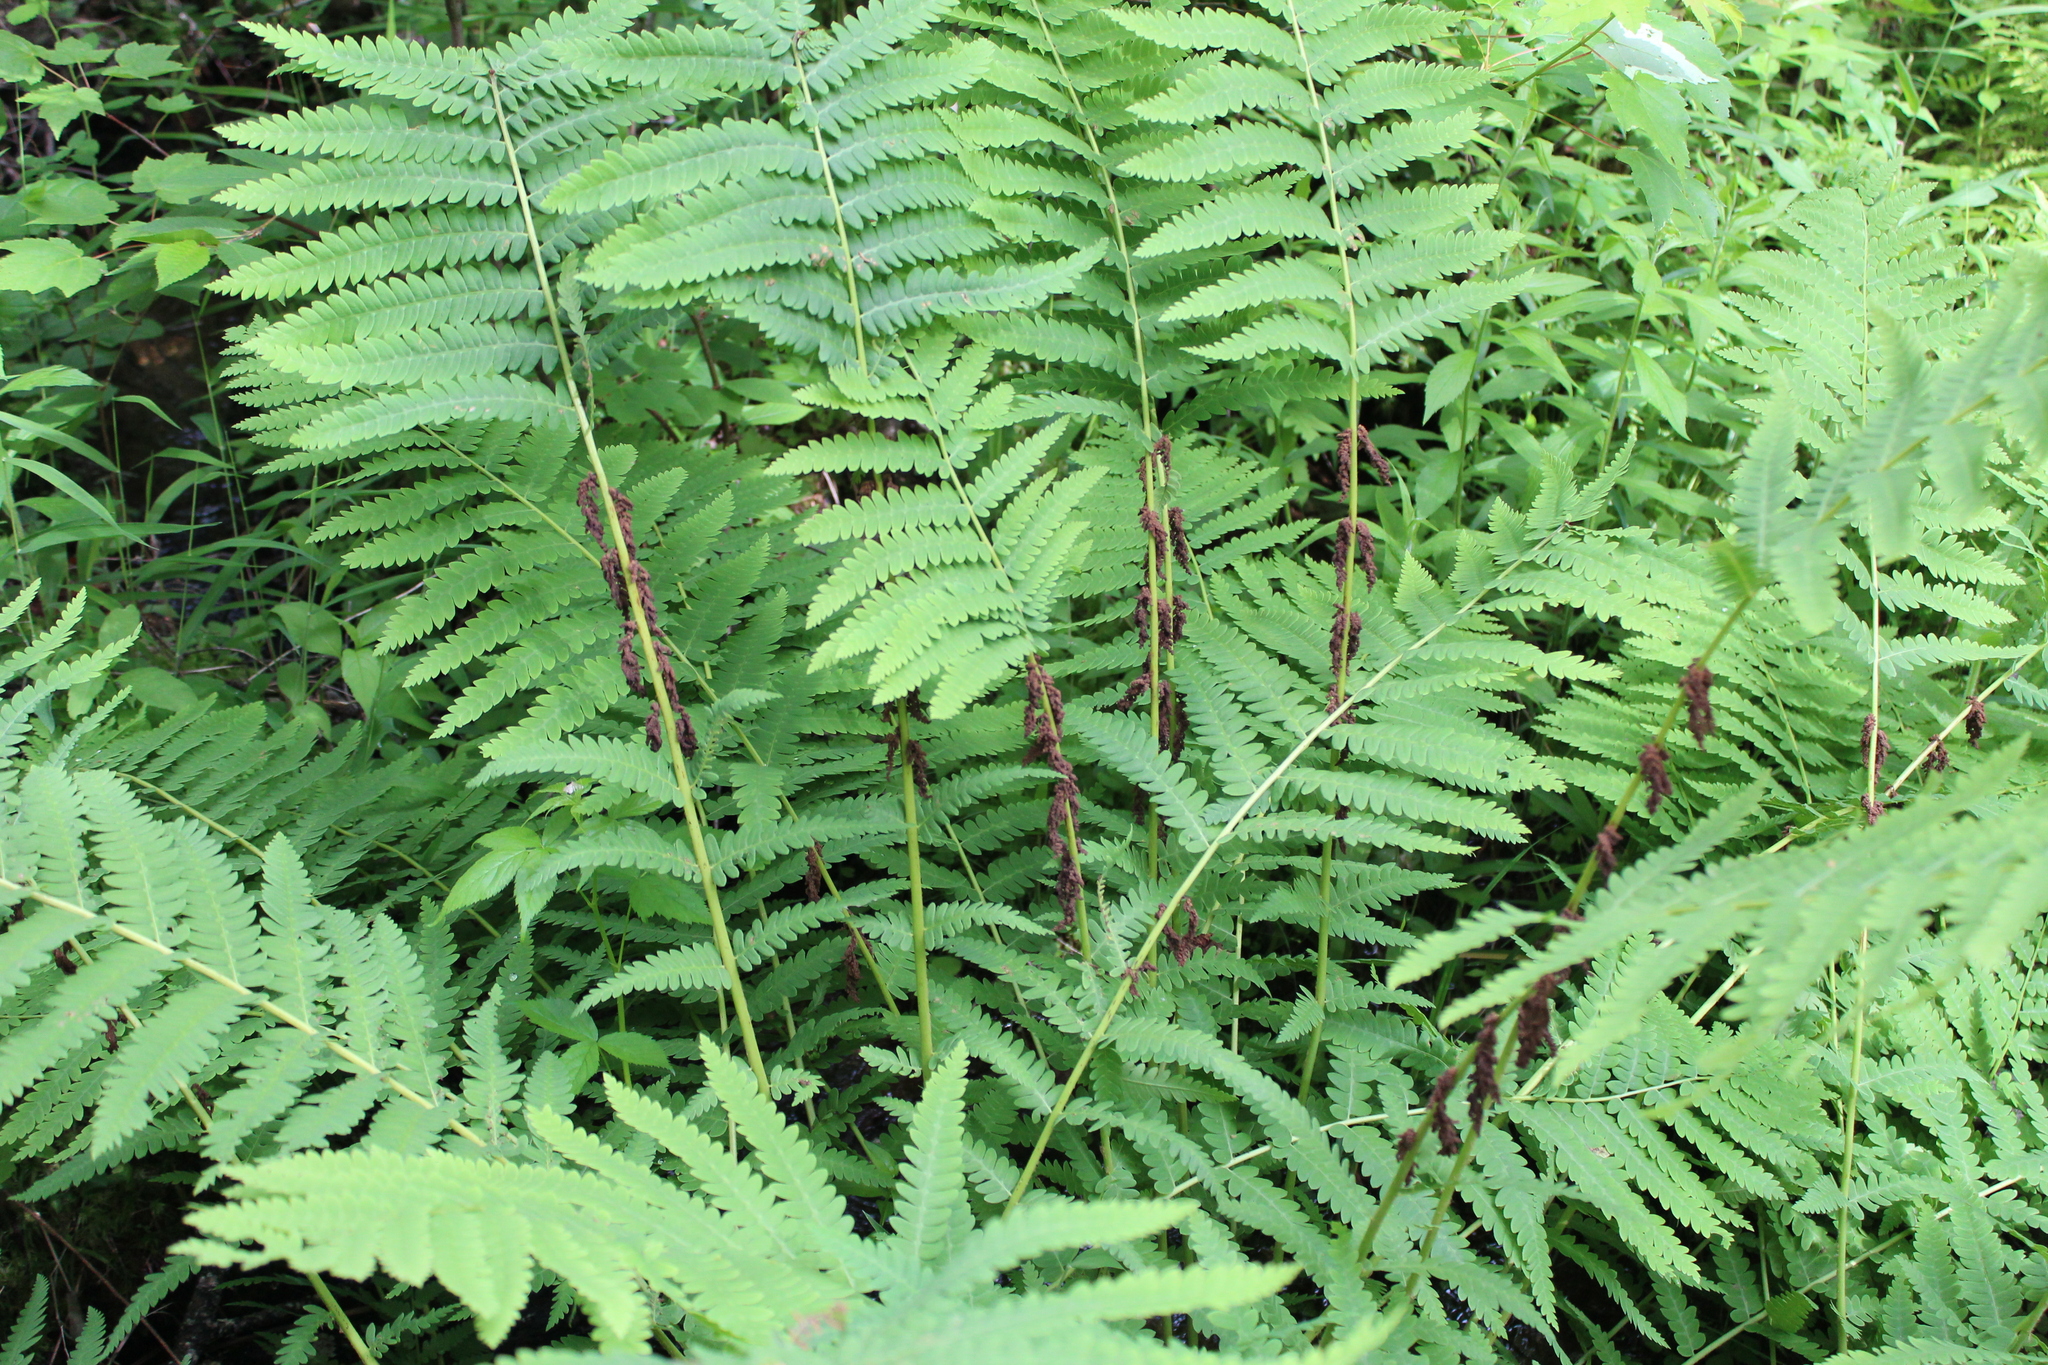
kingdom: Plantae
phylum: Tracheophyta
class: Polypodiopsida
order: Osmundales
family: Osmundaceae
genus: Claytosmunda
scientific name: Claytosmunda claytoniana
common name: Clayton's fern
